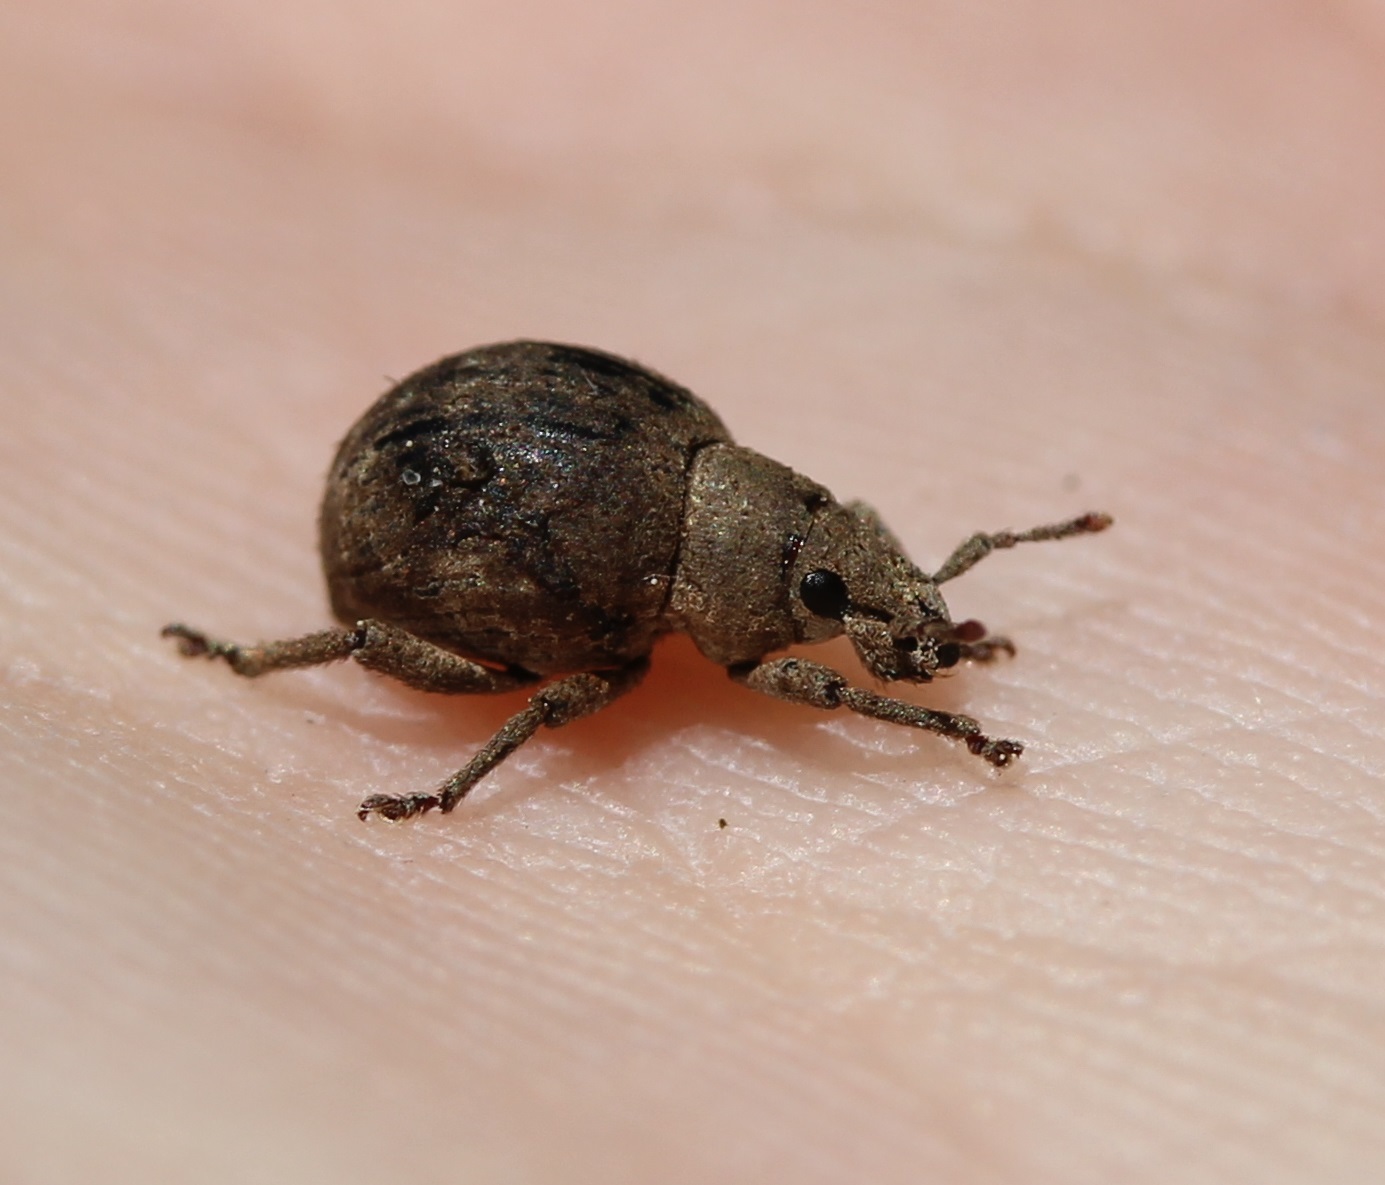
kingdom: Animalia
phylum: Arthropoda
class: Insecta
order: Coleoptera
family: Curculionidae
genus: Pseudocneorhinus
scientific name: Pseudocneorhinus bifasciatus
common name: Two-banded japanese weevil
